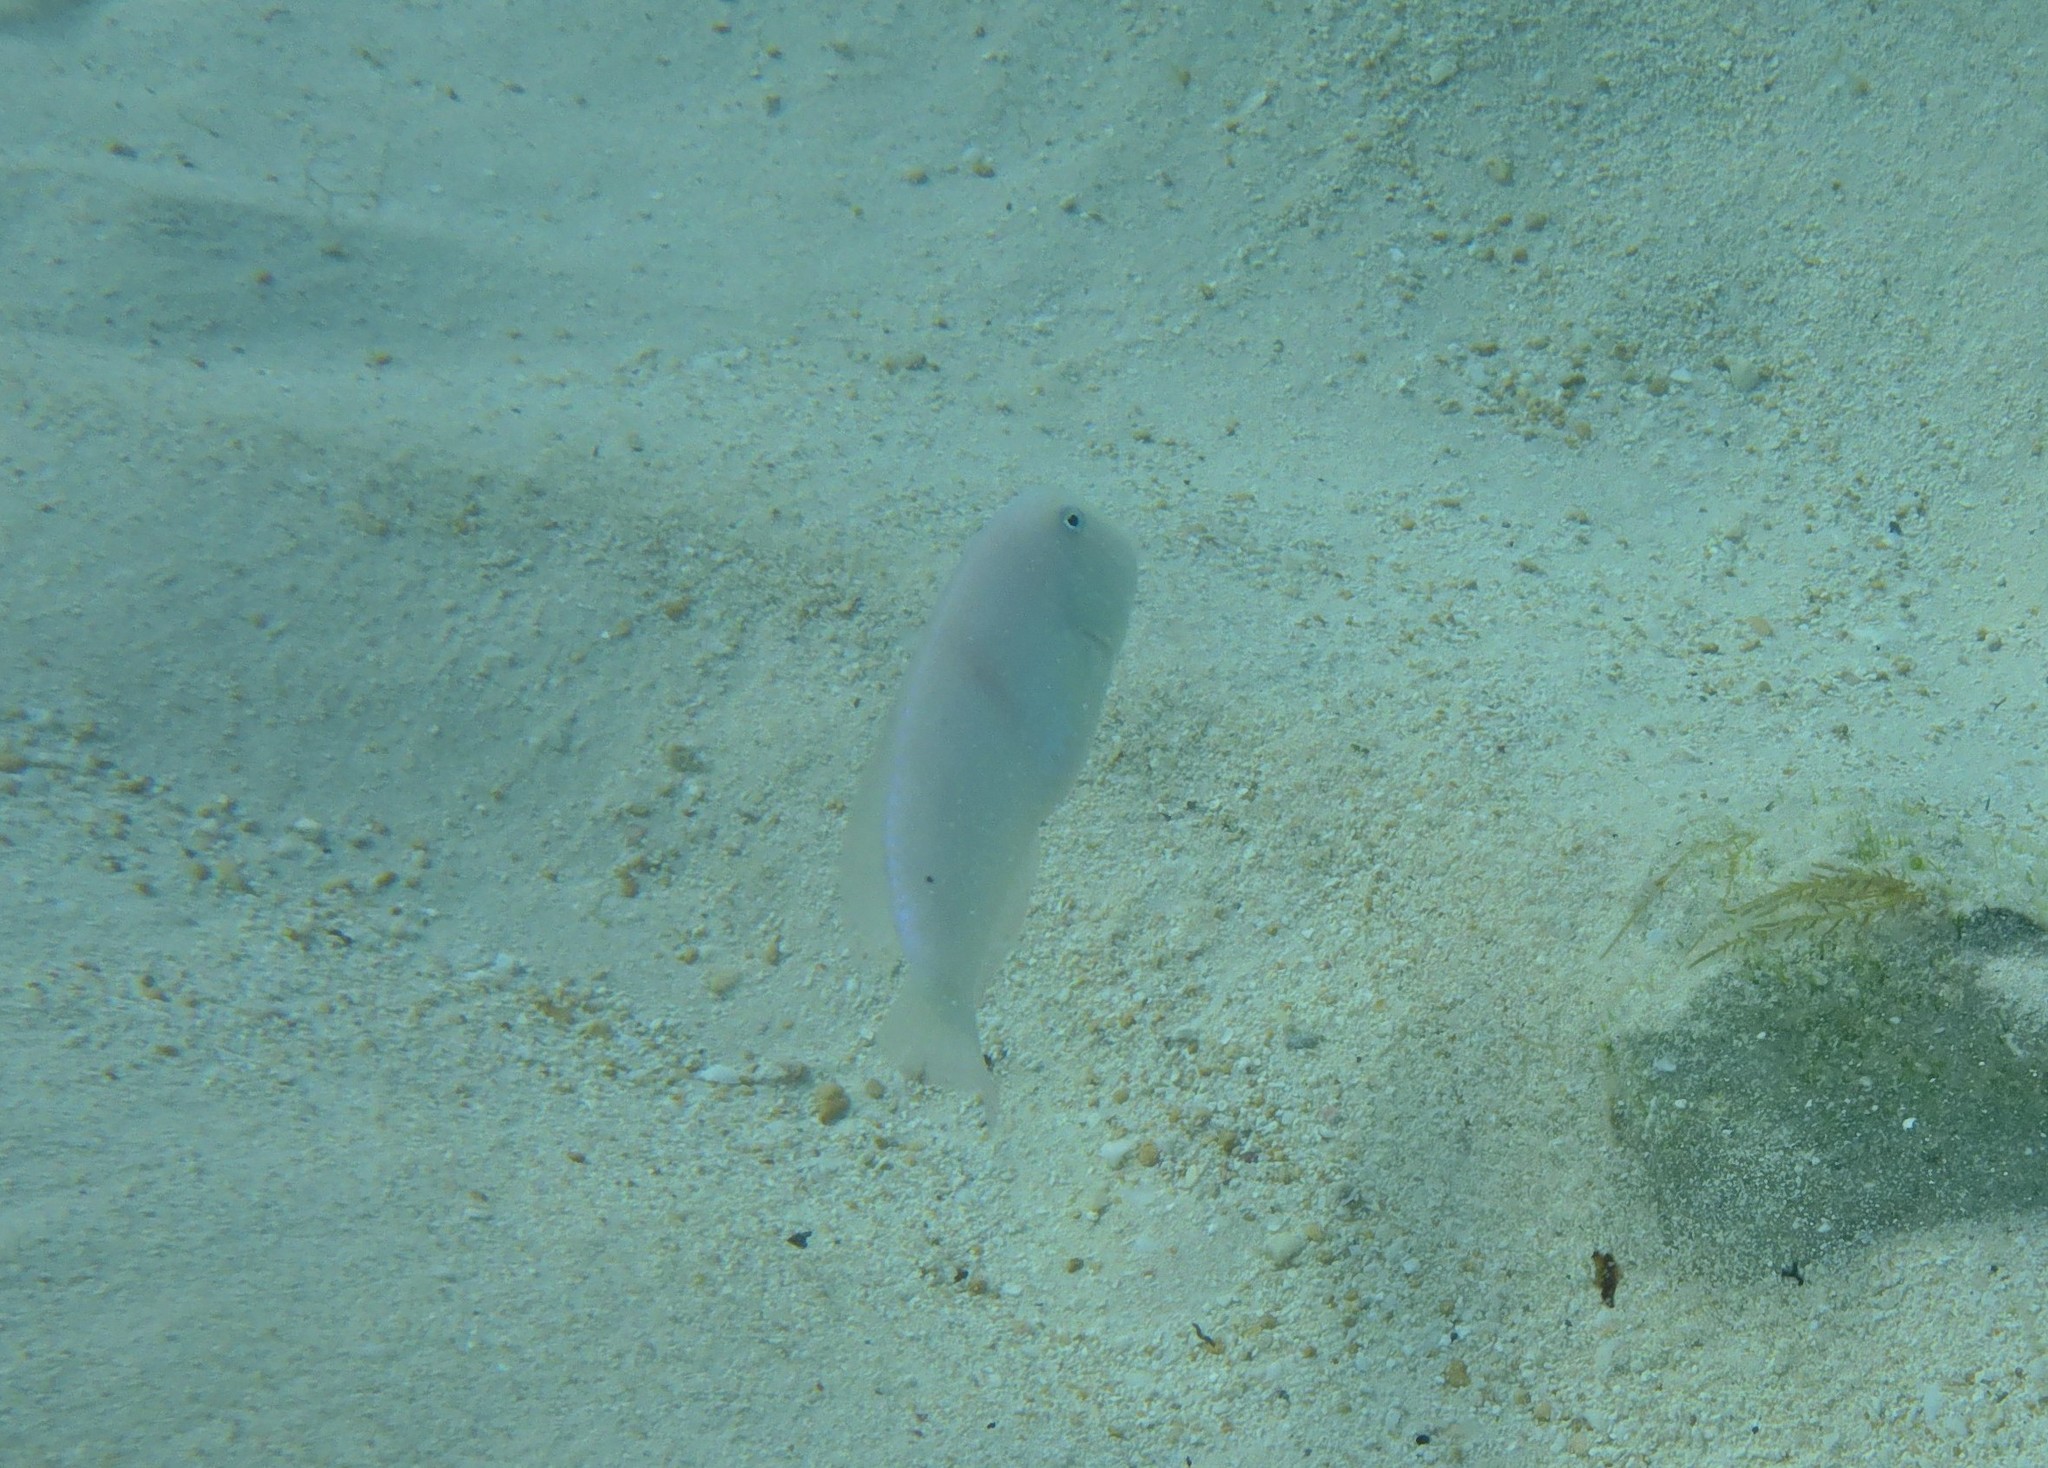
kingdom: Animalia
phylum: Chordata
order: Perciformes
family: Labridae
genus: Xyrichtys
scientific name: Xyrichtys novacula
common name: Pearly razorfish
